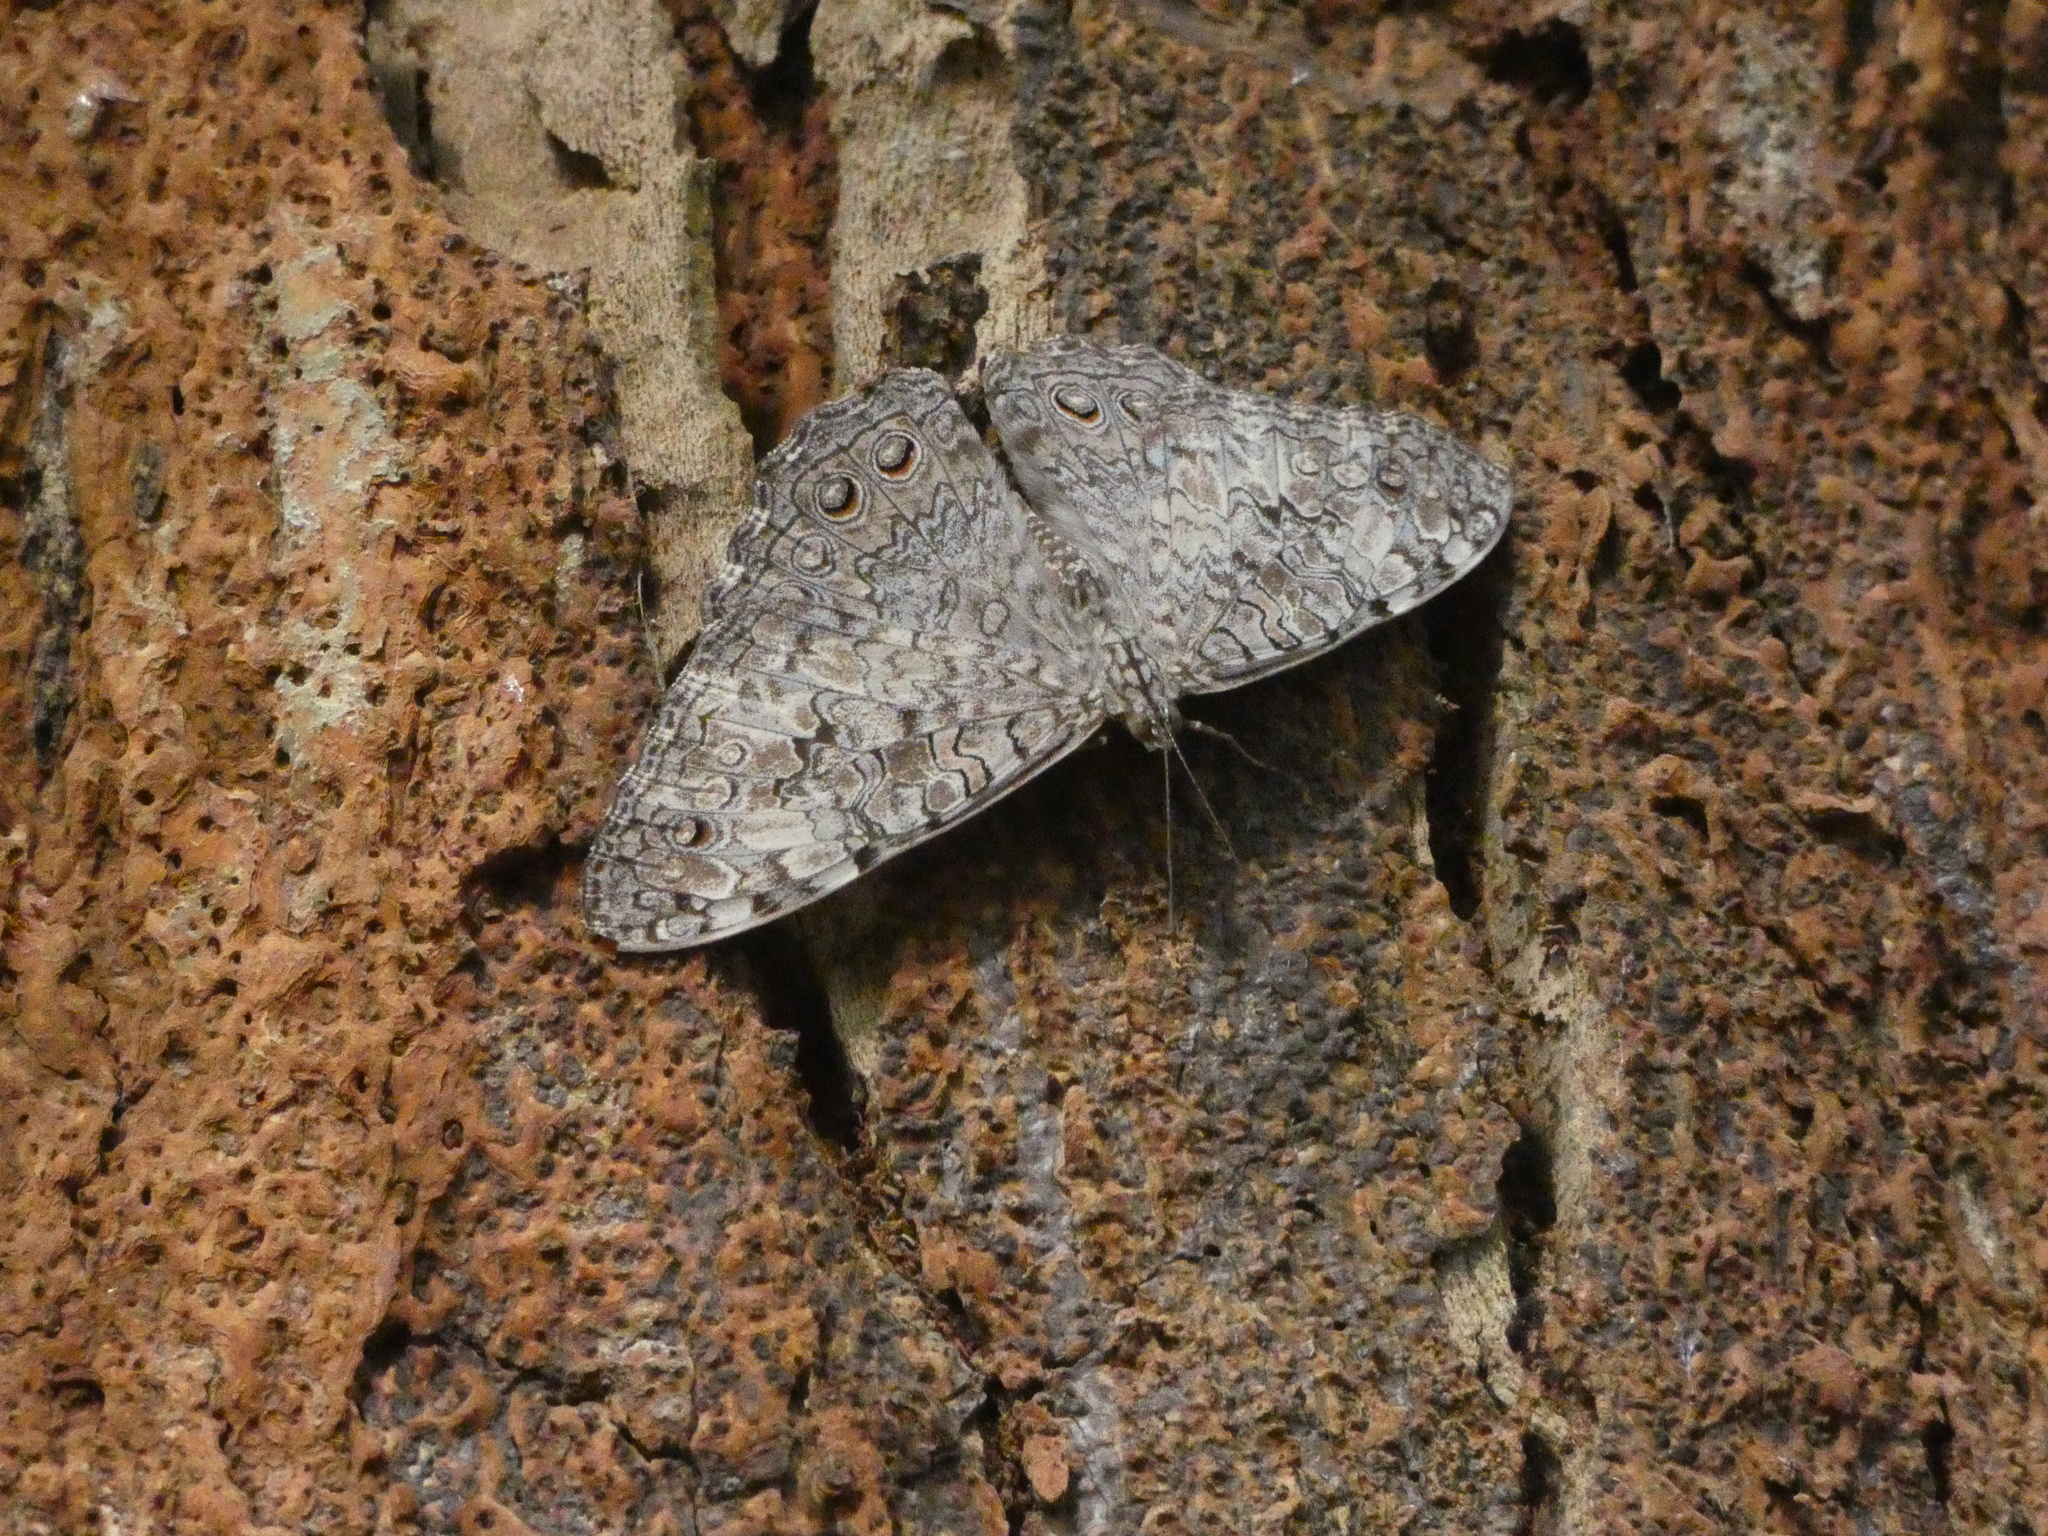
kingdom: Animalia
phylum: Arthropoda
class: Insecta
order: Lepidoptera
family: Nymphalidae
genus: Hamadryas
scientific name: Hamadryas februa
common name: Gray cracker
